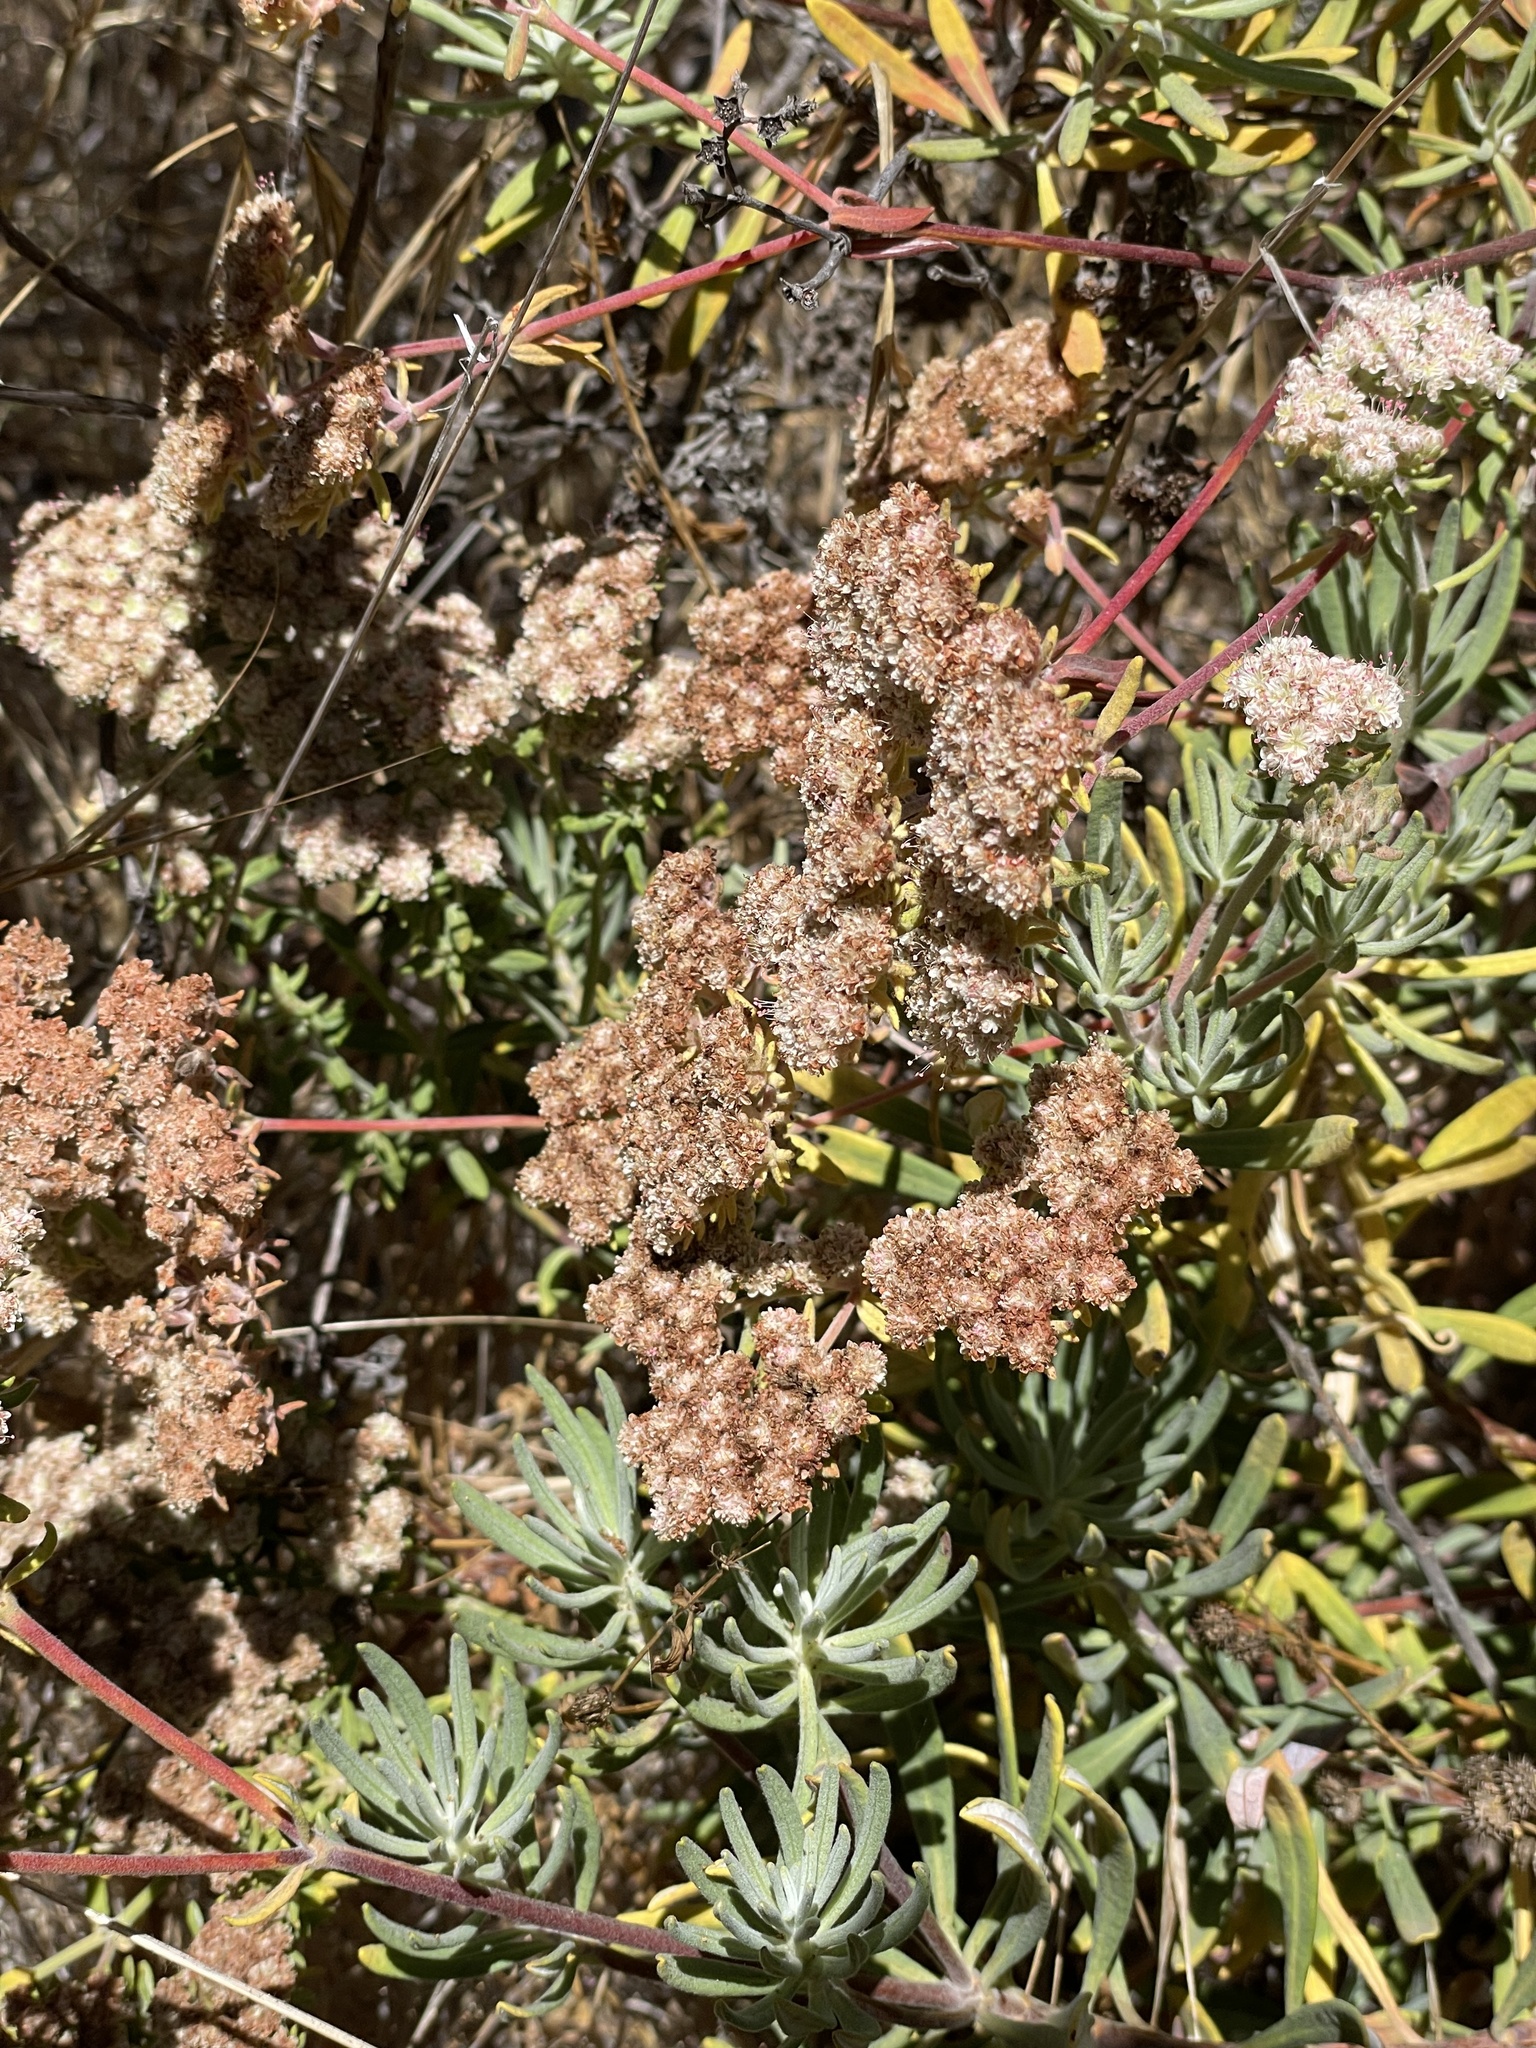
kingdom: Plantae
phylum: Tracheophyta
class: Magnoliopsida
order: Caryophyllales
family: Polygonaceae
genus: Eriogonum
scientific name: Eriogonum arborescens
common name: Island buckwheat
